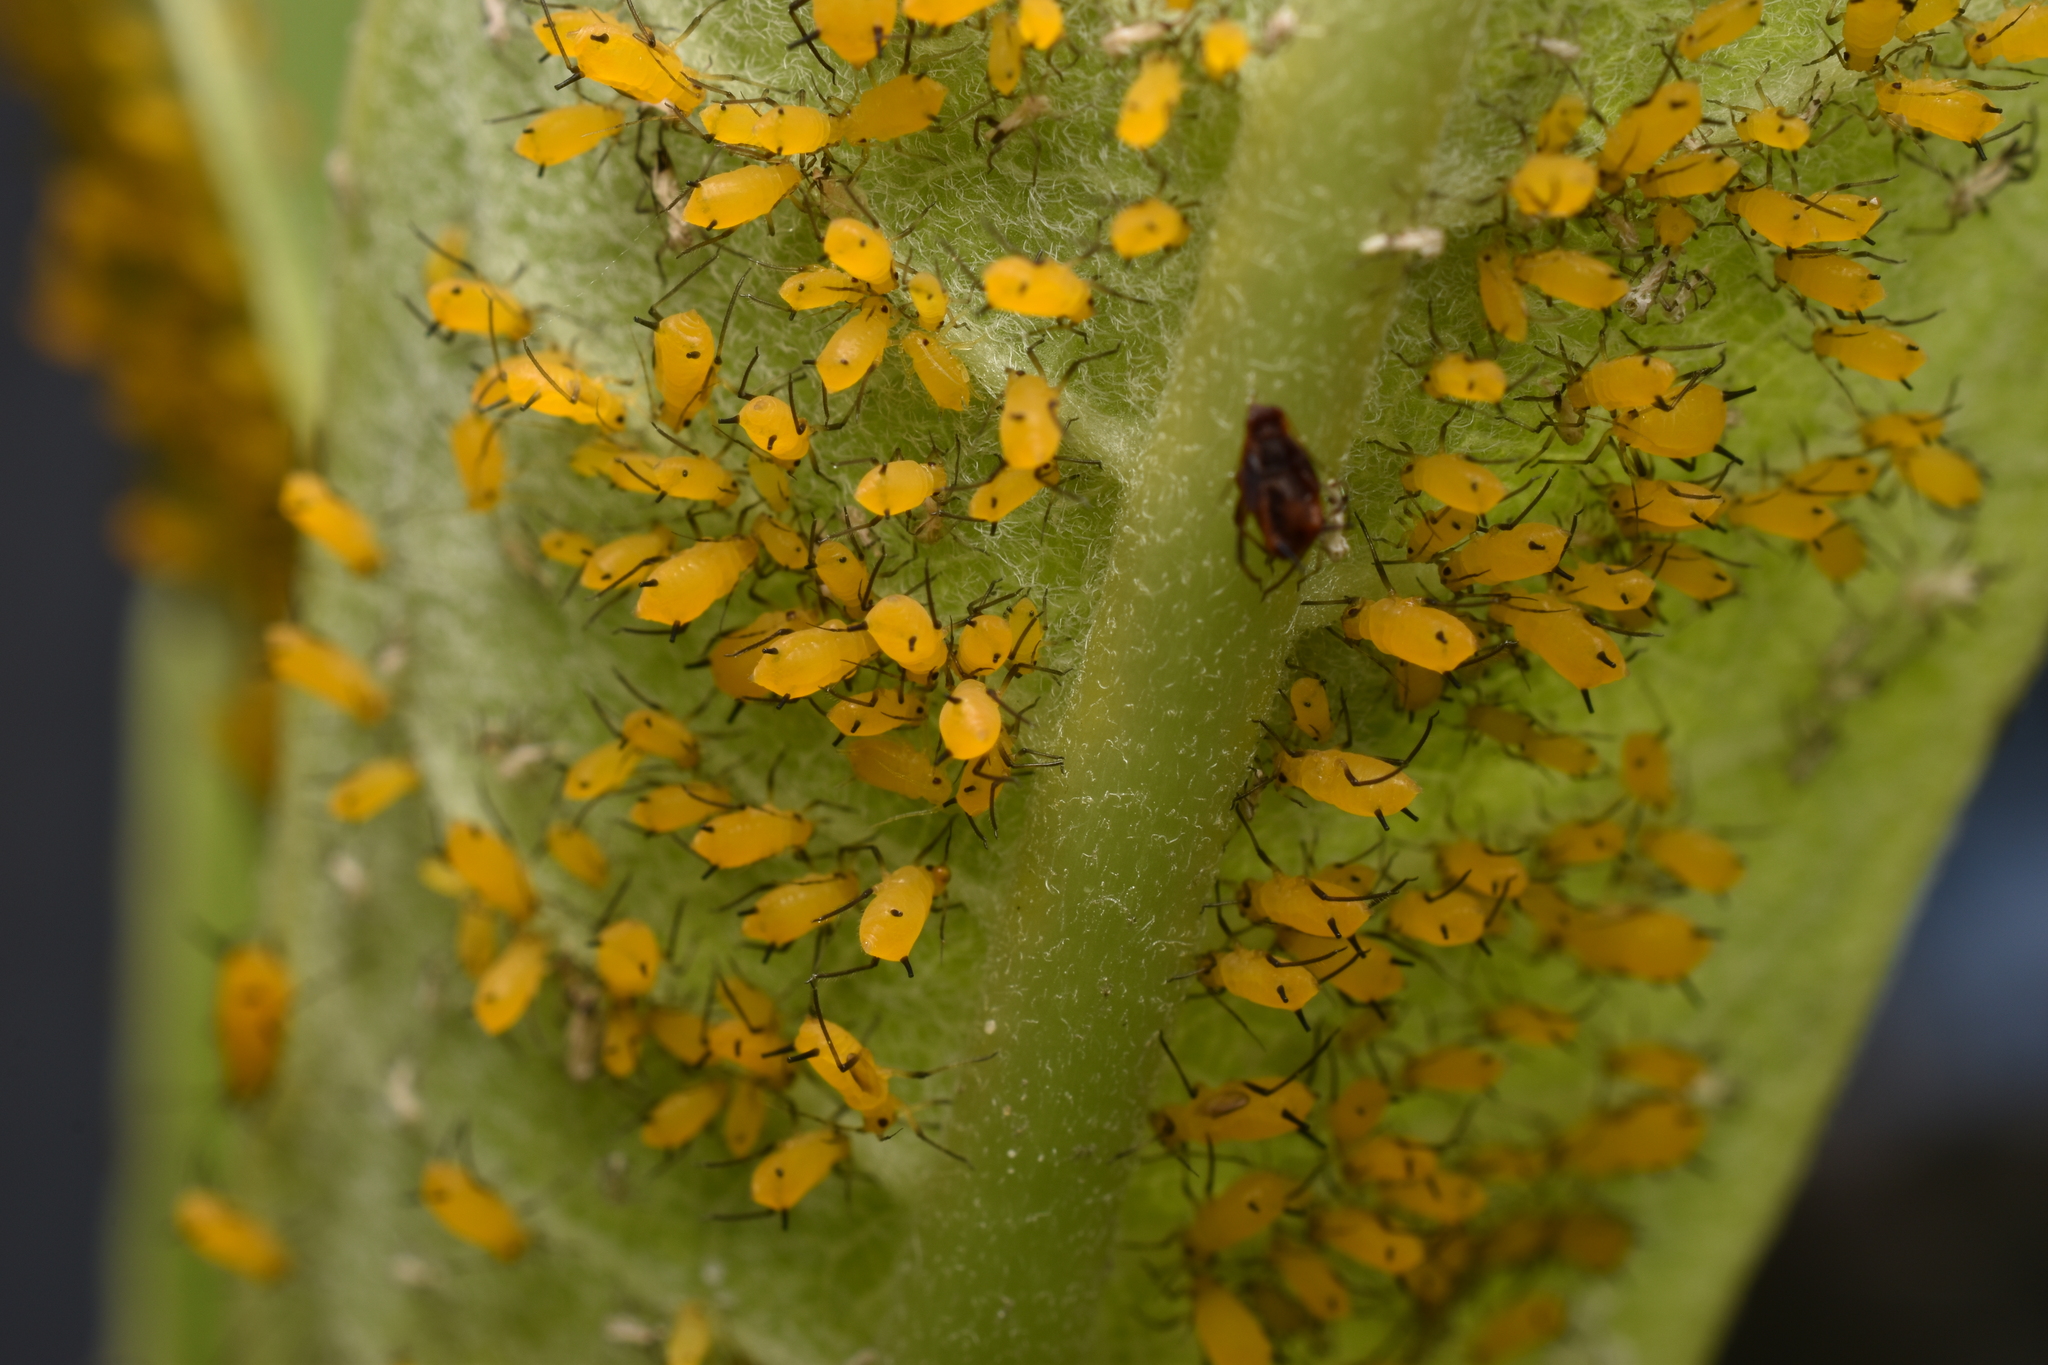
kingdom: Animalia
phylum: Arthropoda
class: Insecta
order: Hemiptera
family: Aphididae
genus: Aphis
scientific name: Aphis nerii
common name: Oleander aphid
